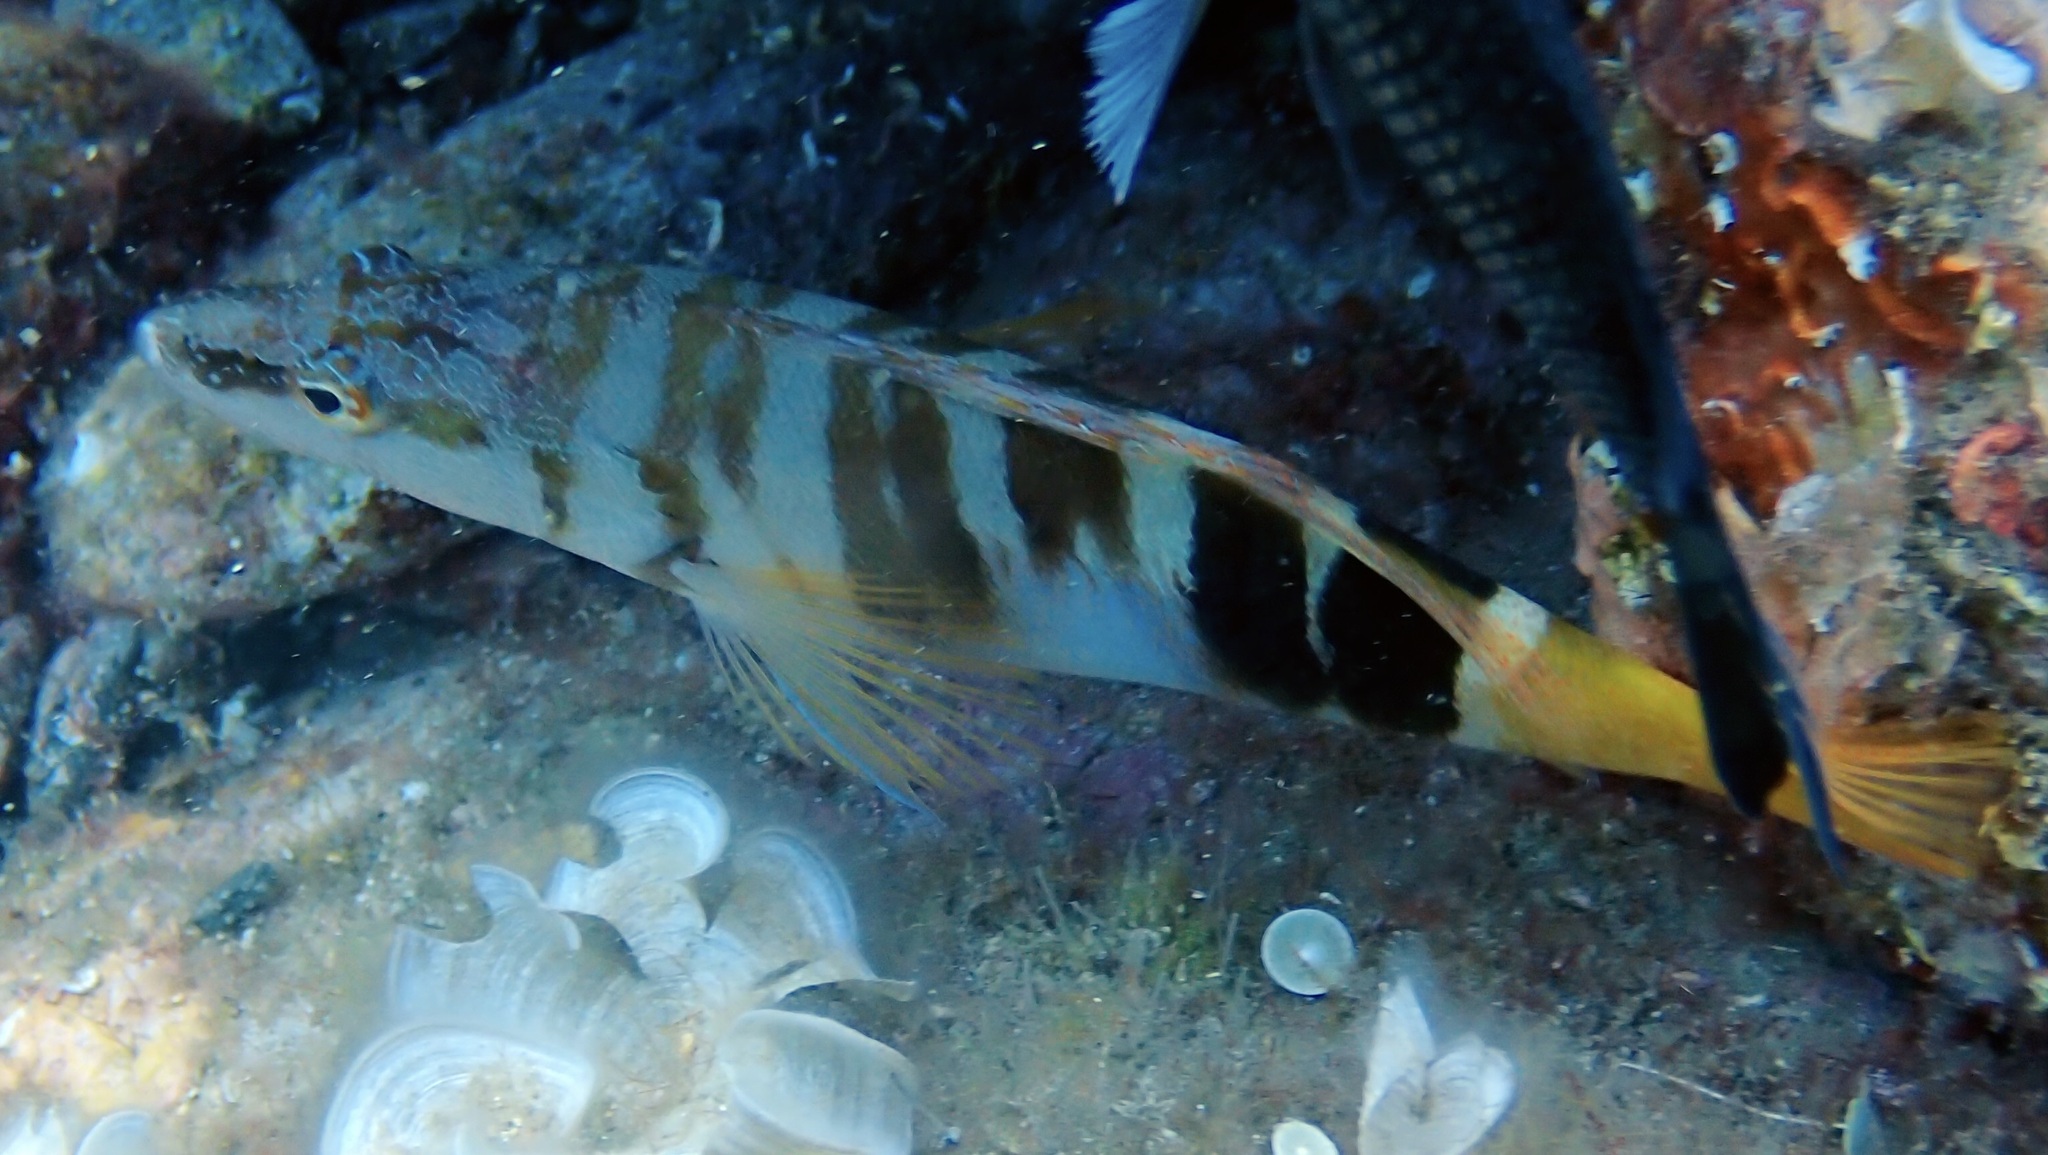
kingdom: Animalia
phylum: Chordata
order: Perciformes
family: Serranidae
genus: Serranus
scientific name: Serranus scriba
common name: Painted comber
